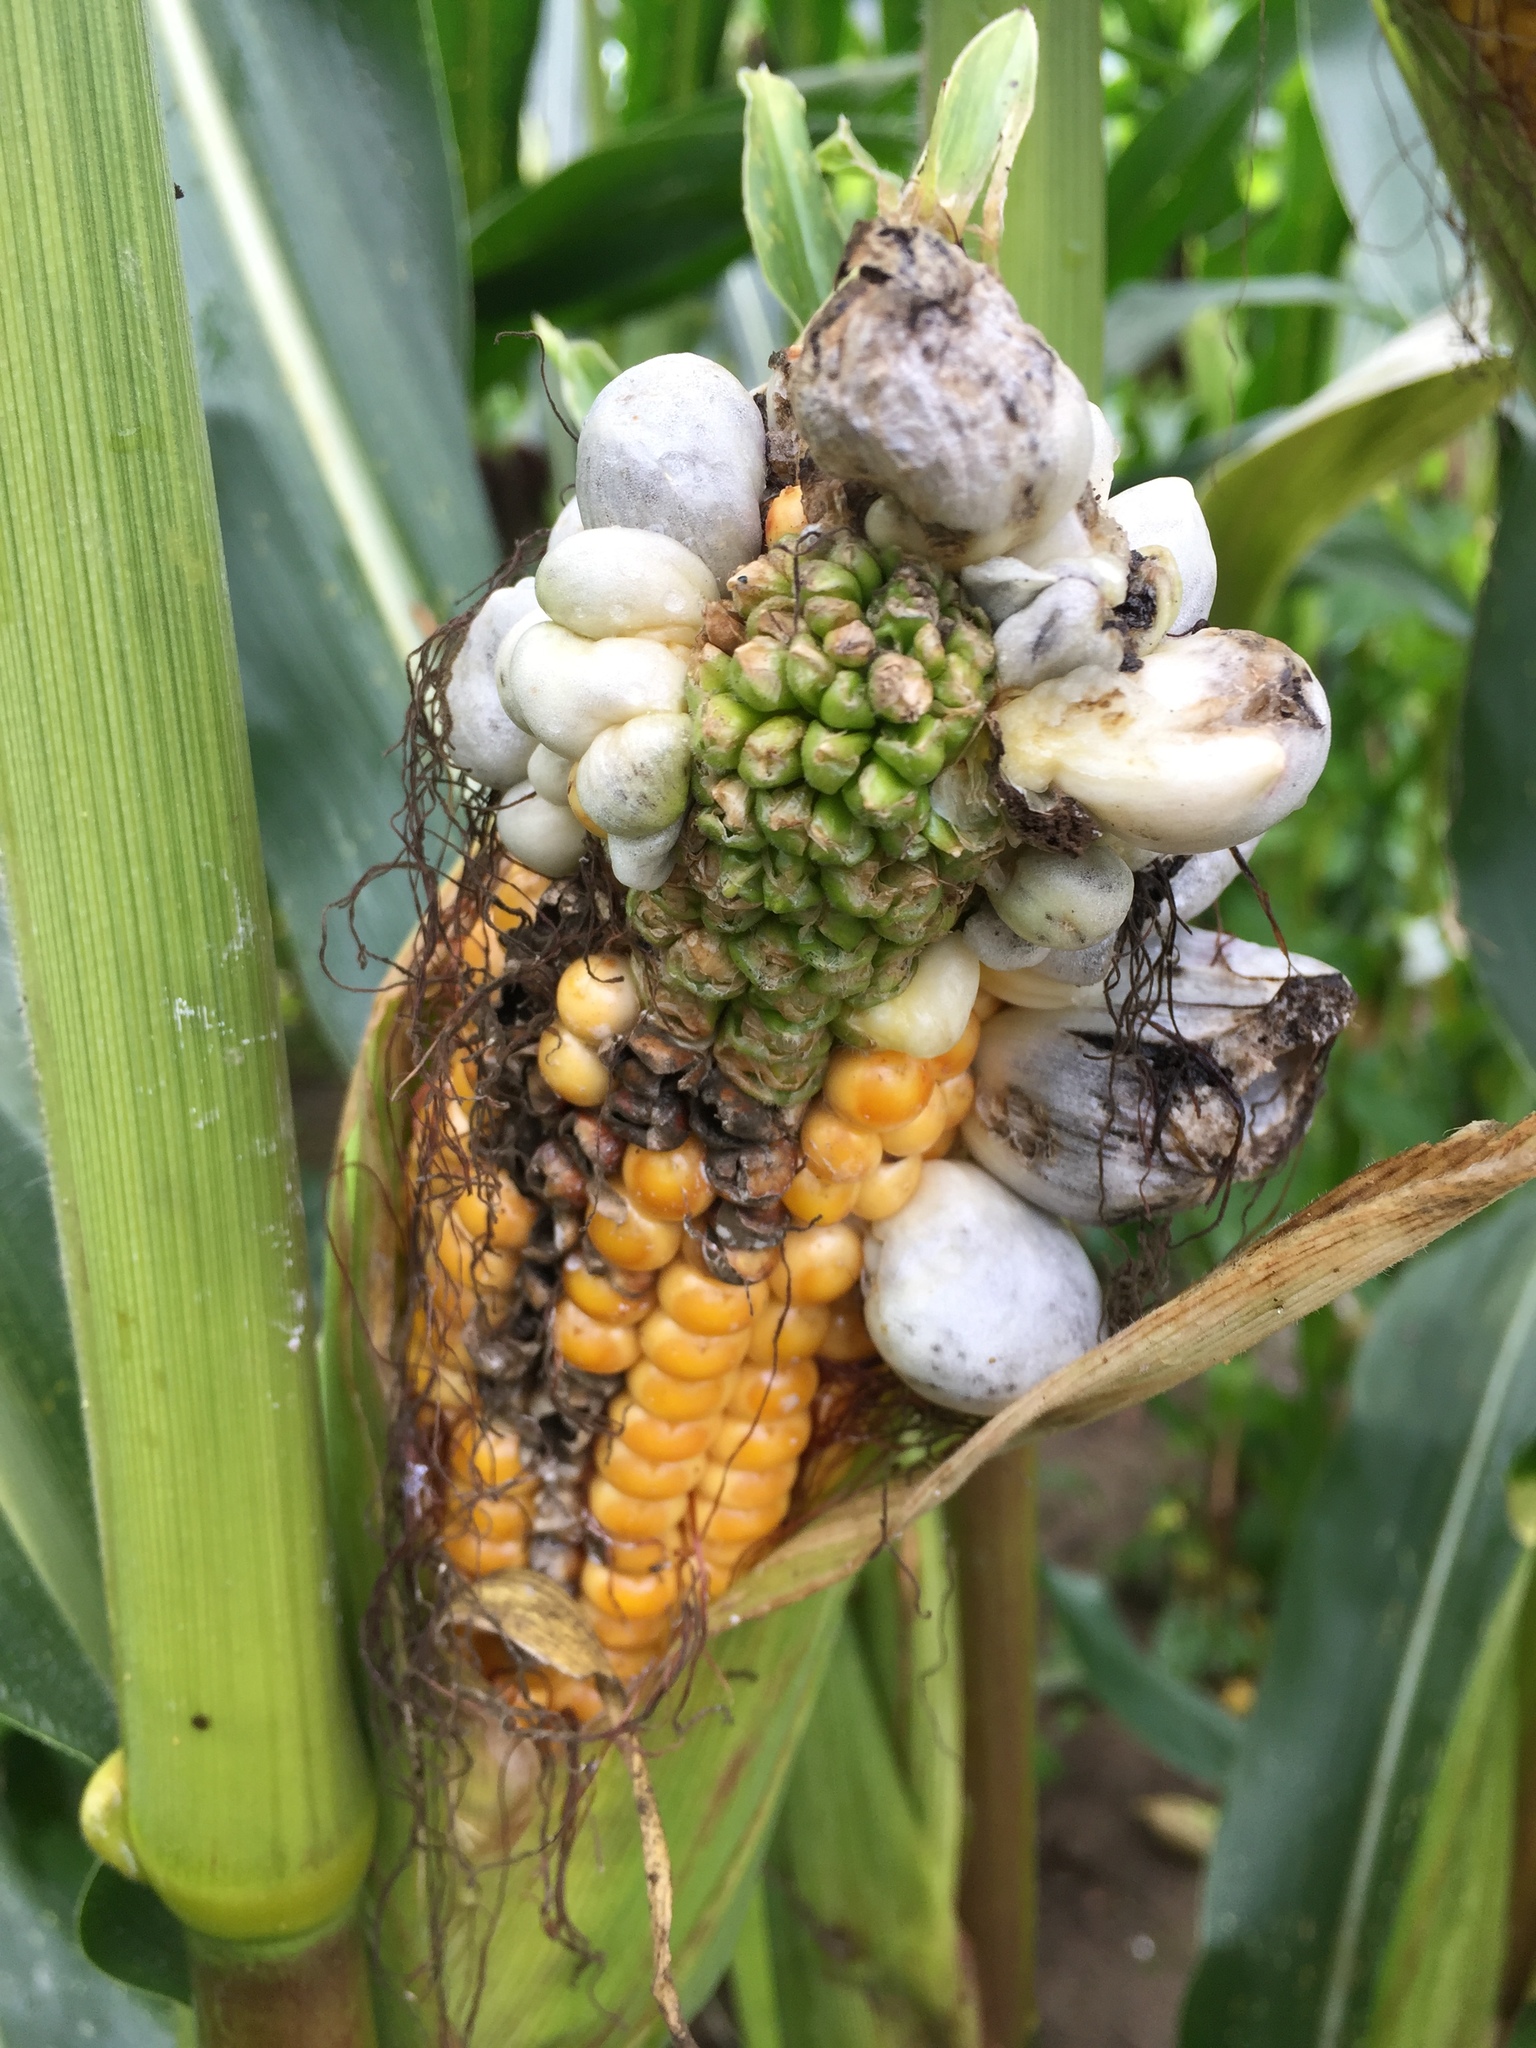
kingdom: Fungi
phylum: Basidiomycota
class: Ustilaginomycetes
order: Ustilaginales
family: Ustilaginaceae
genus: Mycosarcoma
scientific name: Mycosarcoma maydis
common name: Corn smut
